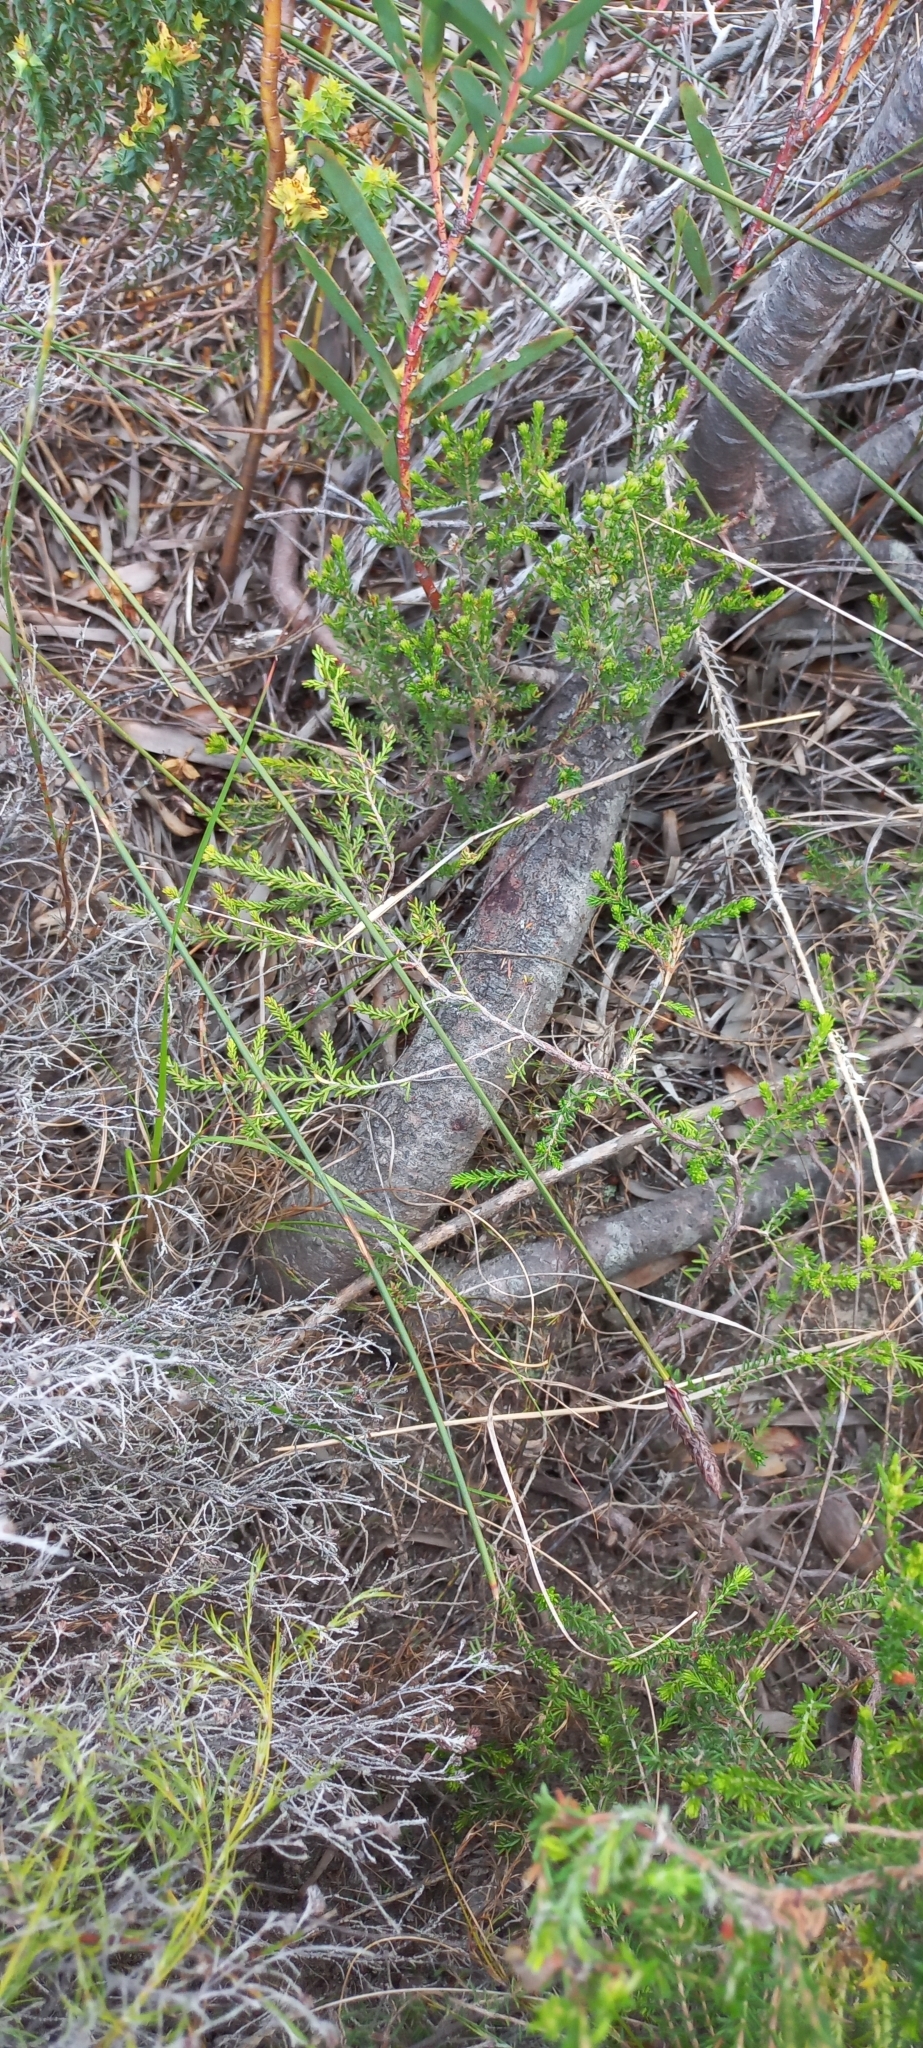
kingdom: Plantae
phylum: Tracheophyta
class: Magnoliopsida
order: Proteales
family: Proteaceae
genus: Leucadendron
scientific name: Leucadendron salignum
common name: Common sunshine conebush
